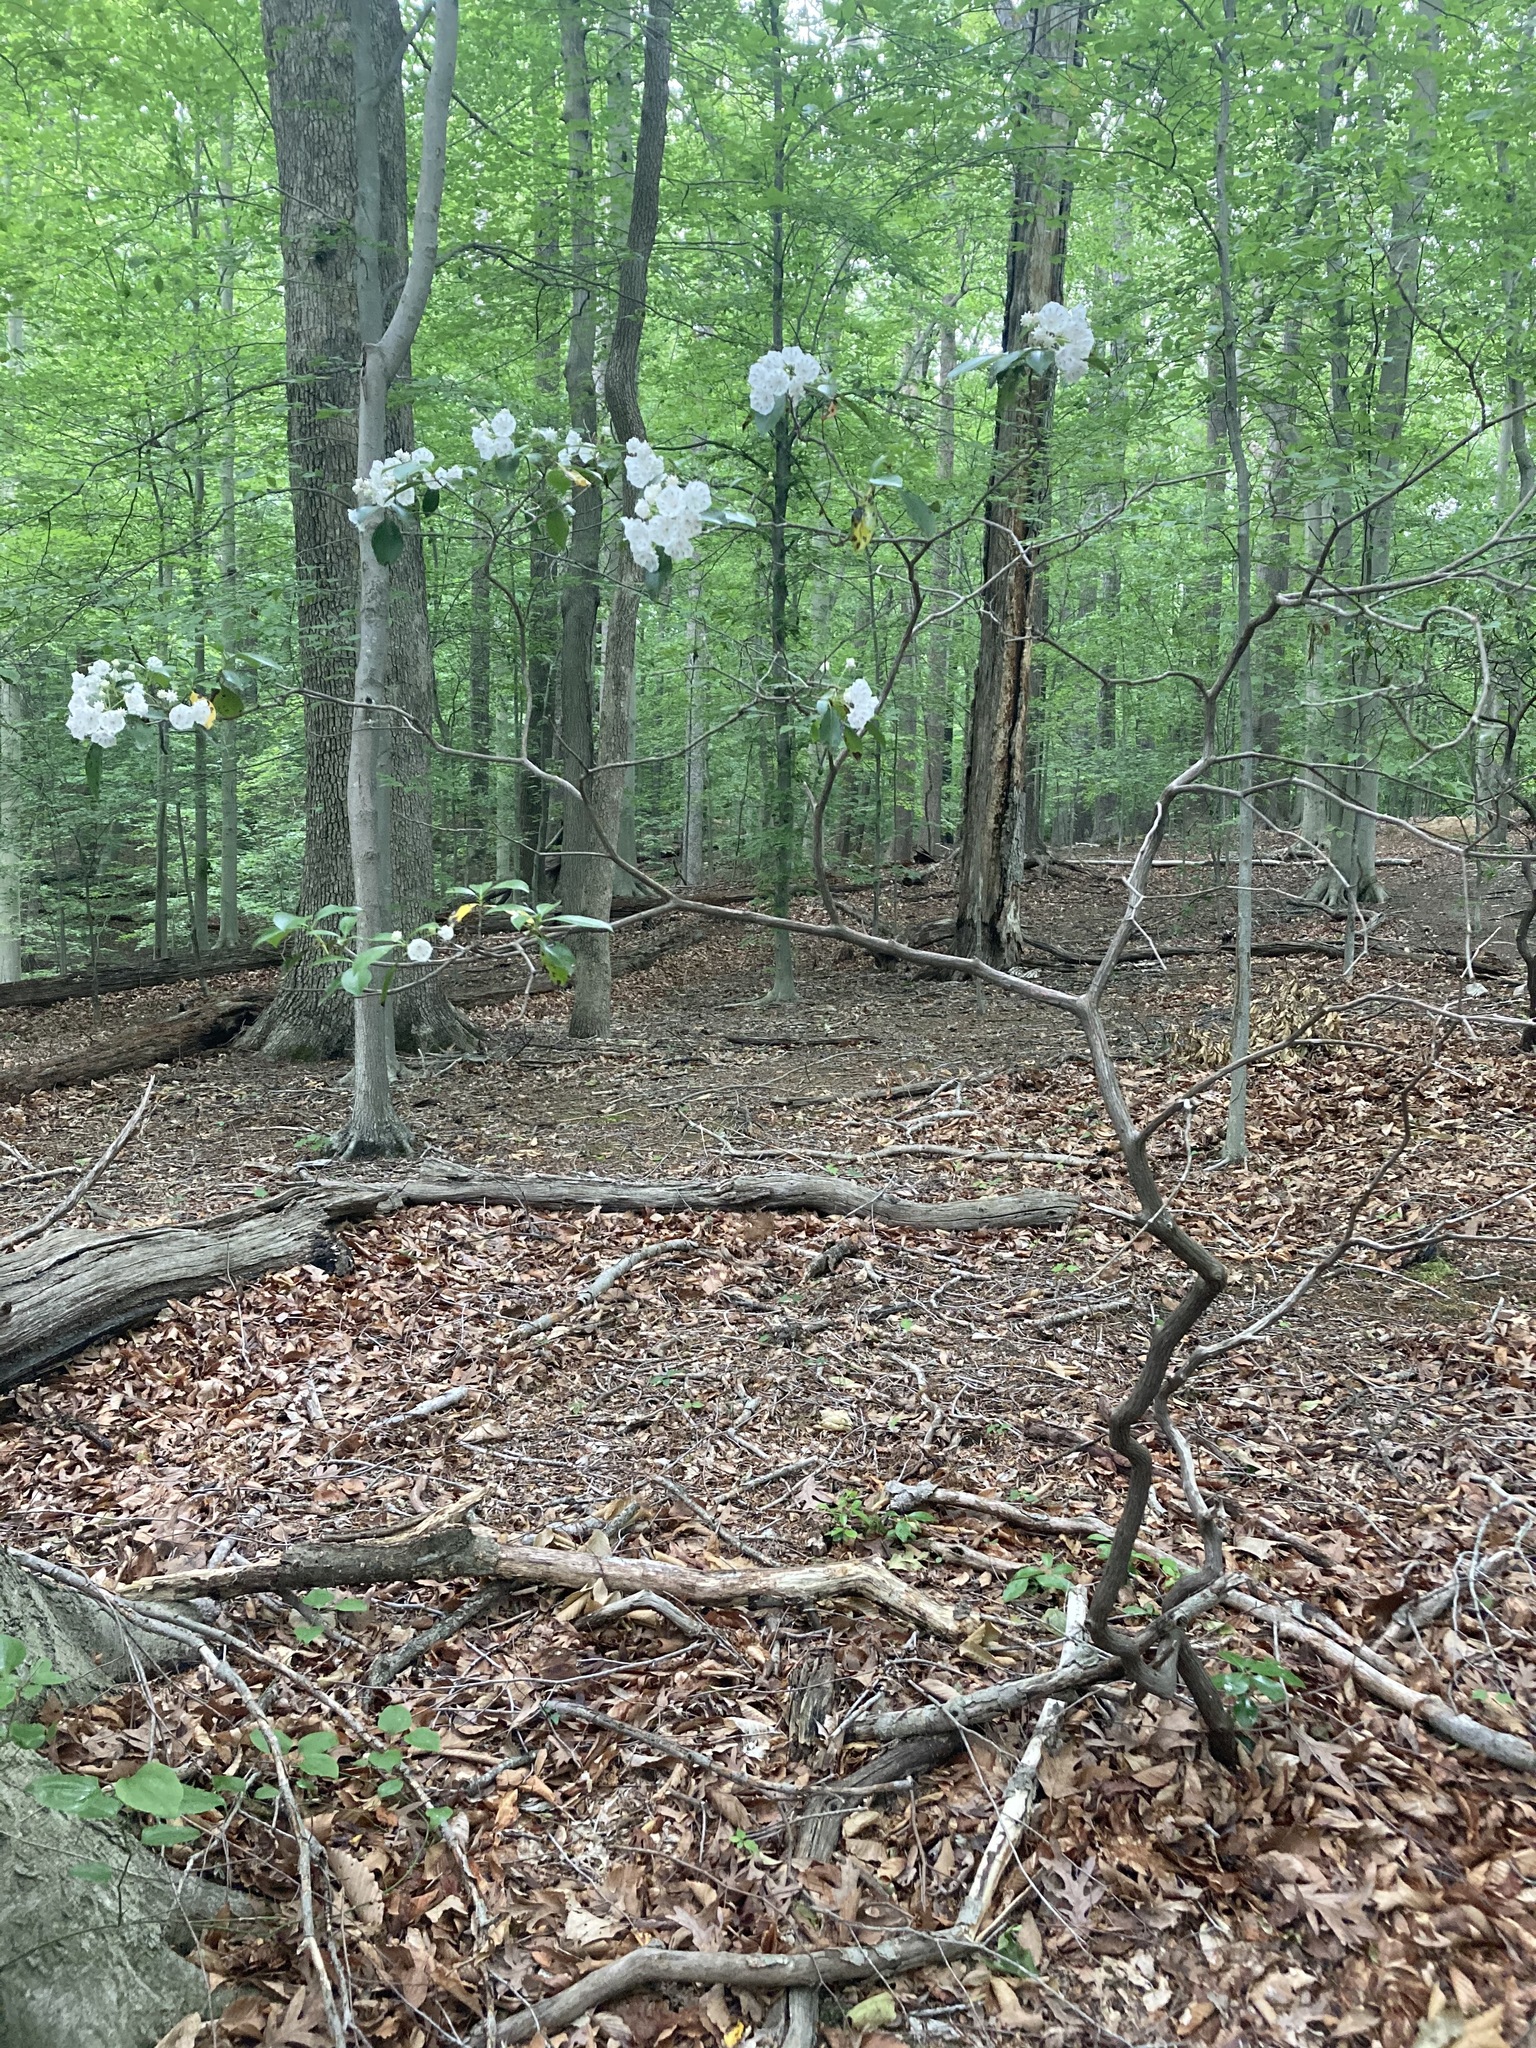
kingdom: Plantae
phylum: Tracheophyta
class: Magnoliopsida
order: Ericales
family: Ericaceae
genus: Kalmia
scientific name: Kalmia latifolia
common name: Mountain-laurel
